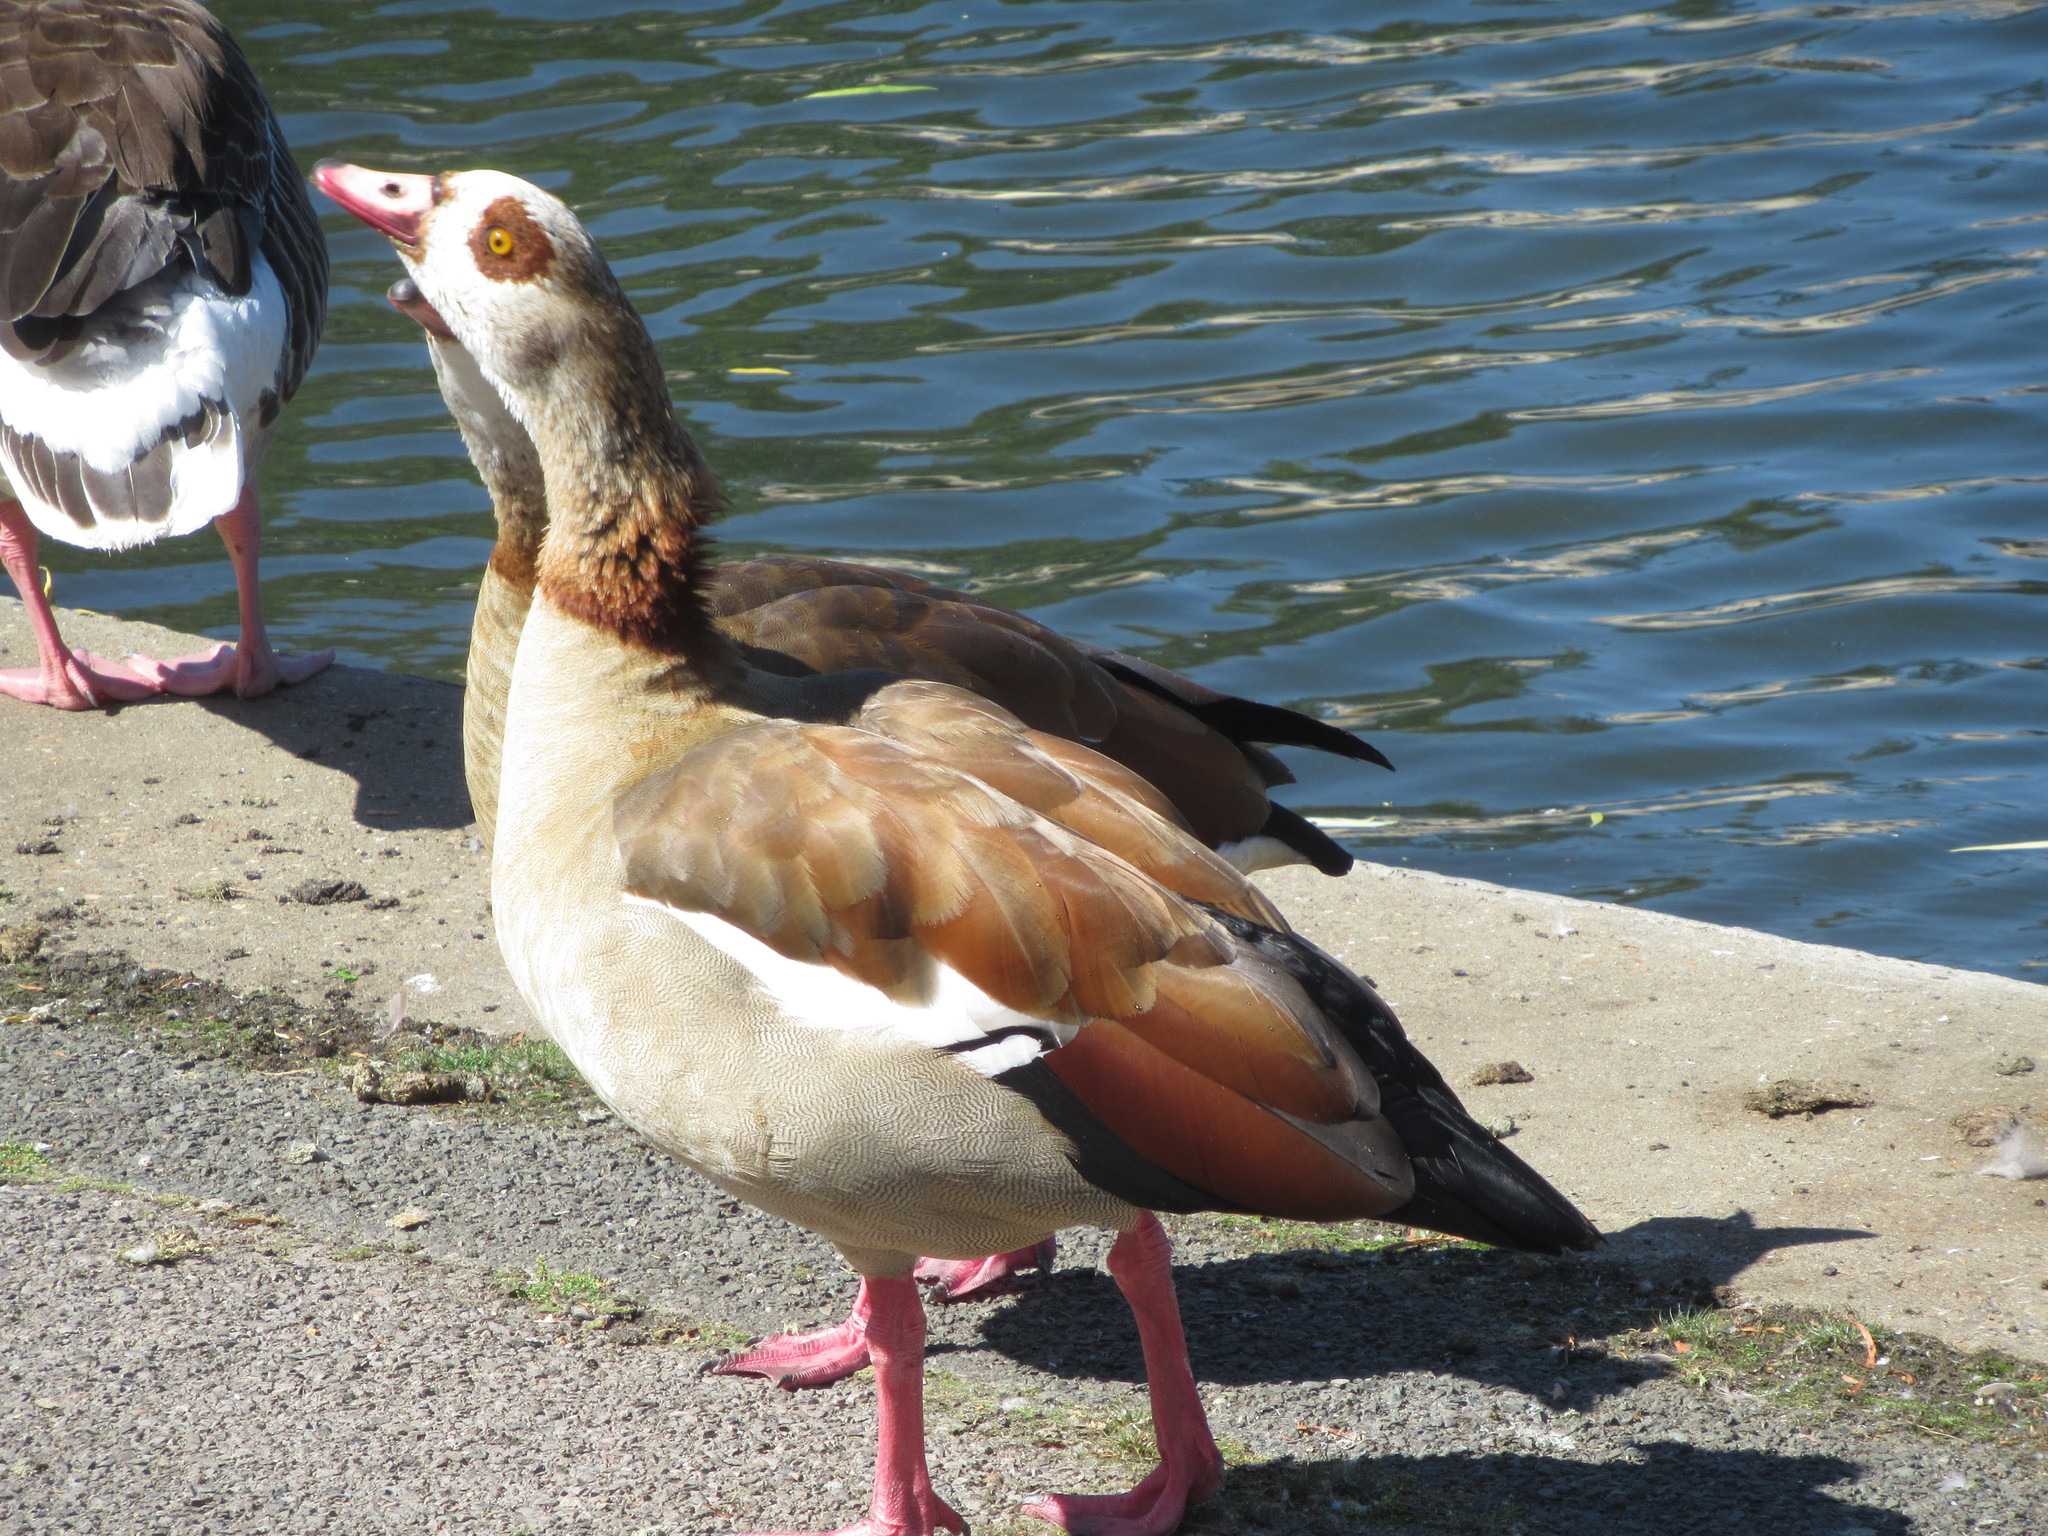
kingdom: Animalia
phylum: Chordata
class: Aves
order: Anseriformes
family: Anatidae
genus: Alopochen
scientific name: Alopochen aegyptiaca
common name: Egyptian goose
